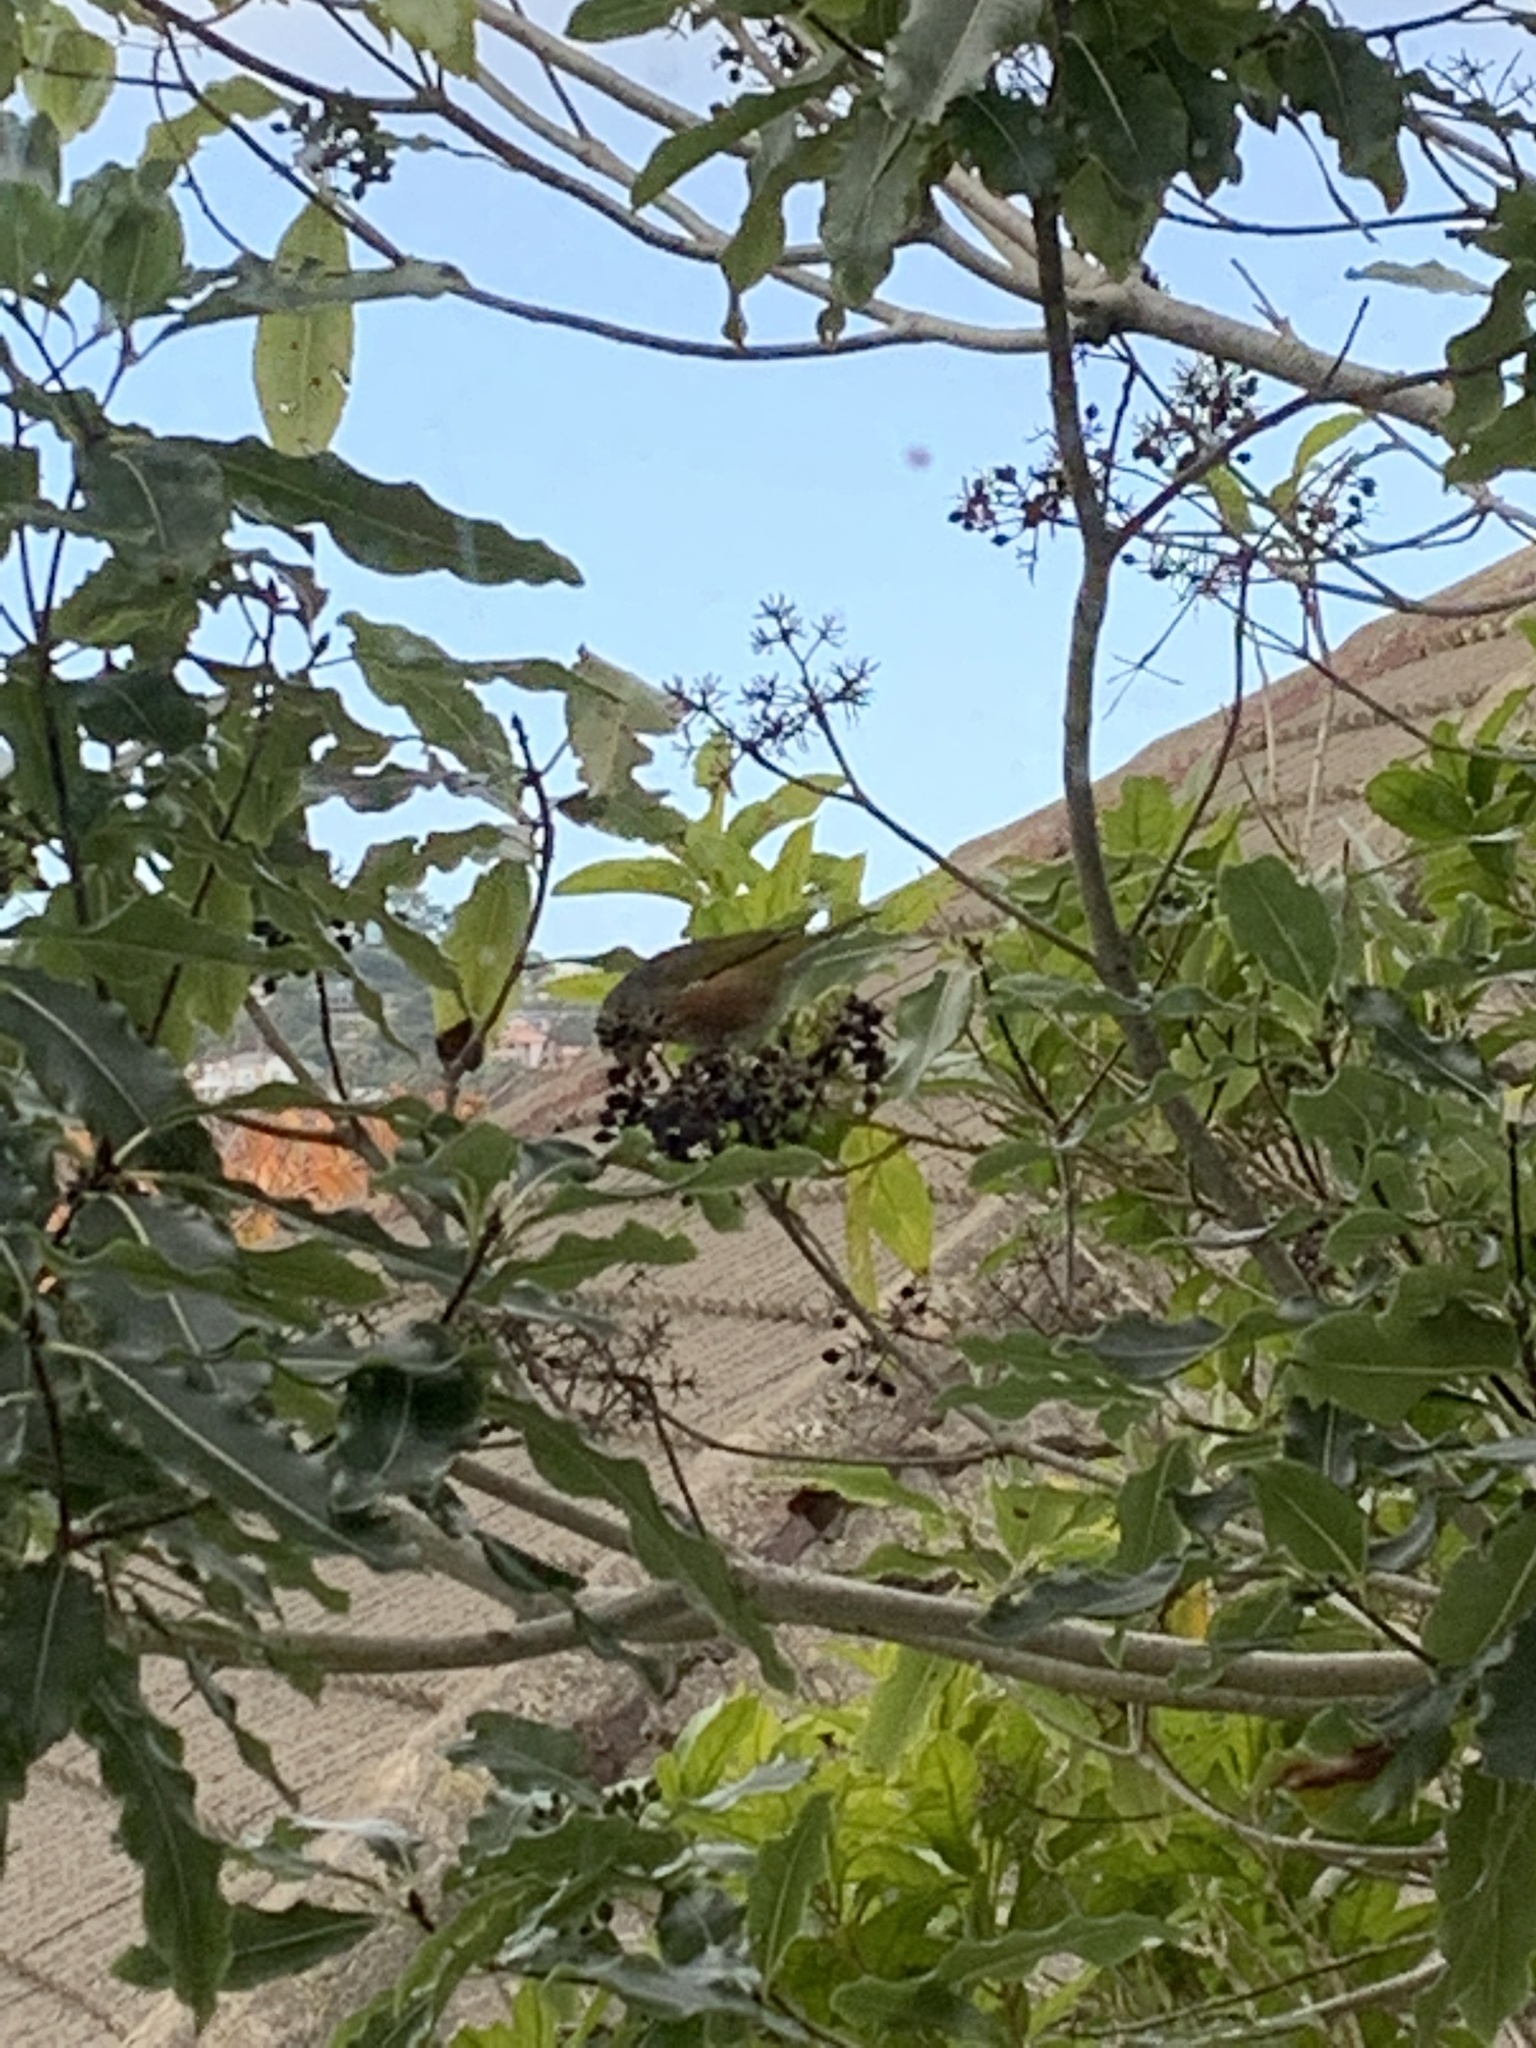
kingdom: Animalia
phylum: Chordata
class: Aves
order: Passeriformes
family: Zosteropidae
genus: Zosterops
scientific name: Zosterops lateralis
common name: Silvereye
